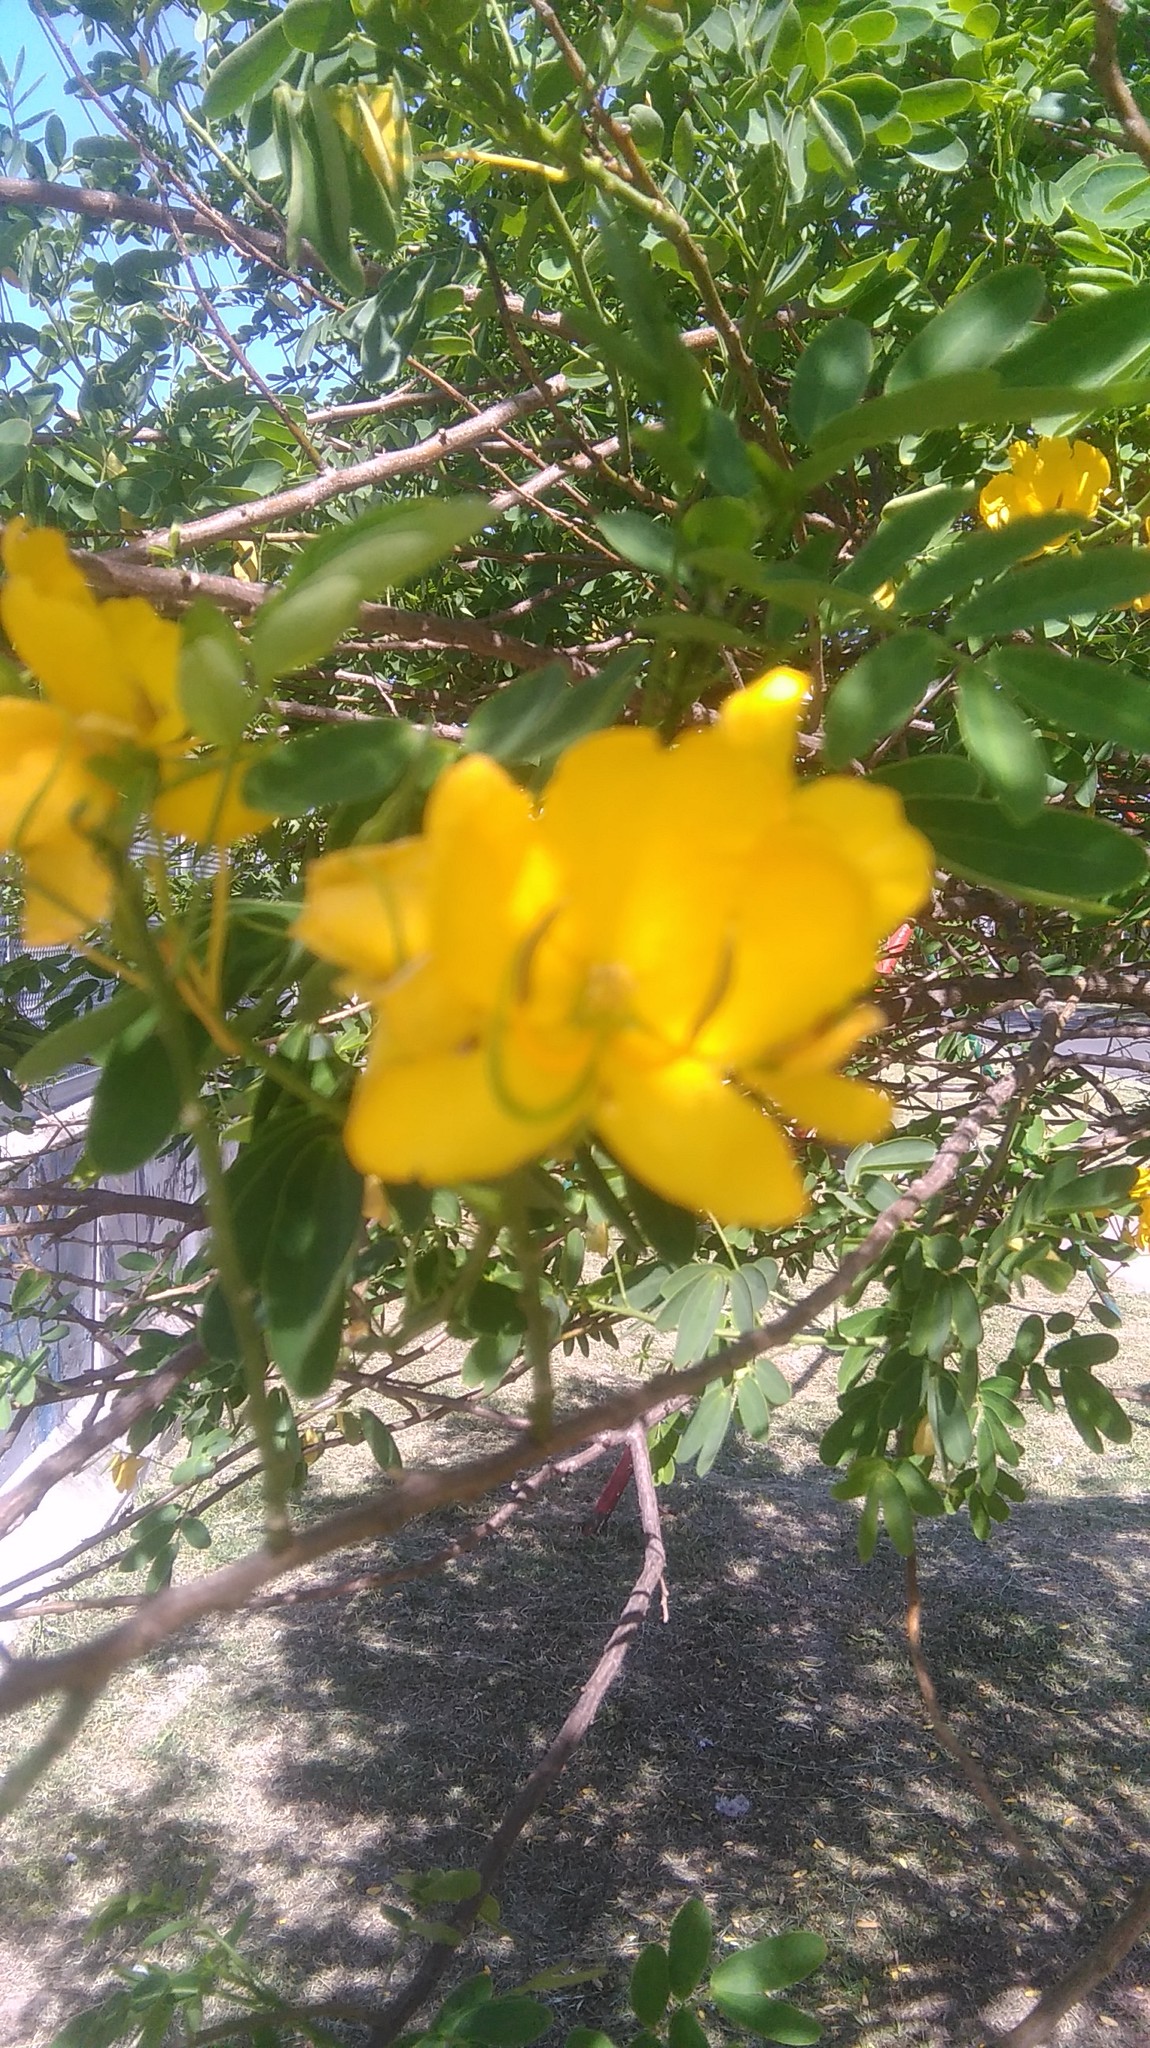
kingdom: Plantae
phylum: Tracheophyta
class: Magnoliopsida
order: Fabales
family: Fabaceae
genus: Senna
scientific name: Senna pendula
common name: Easter cassia
